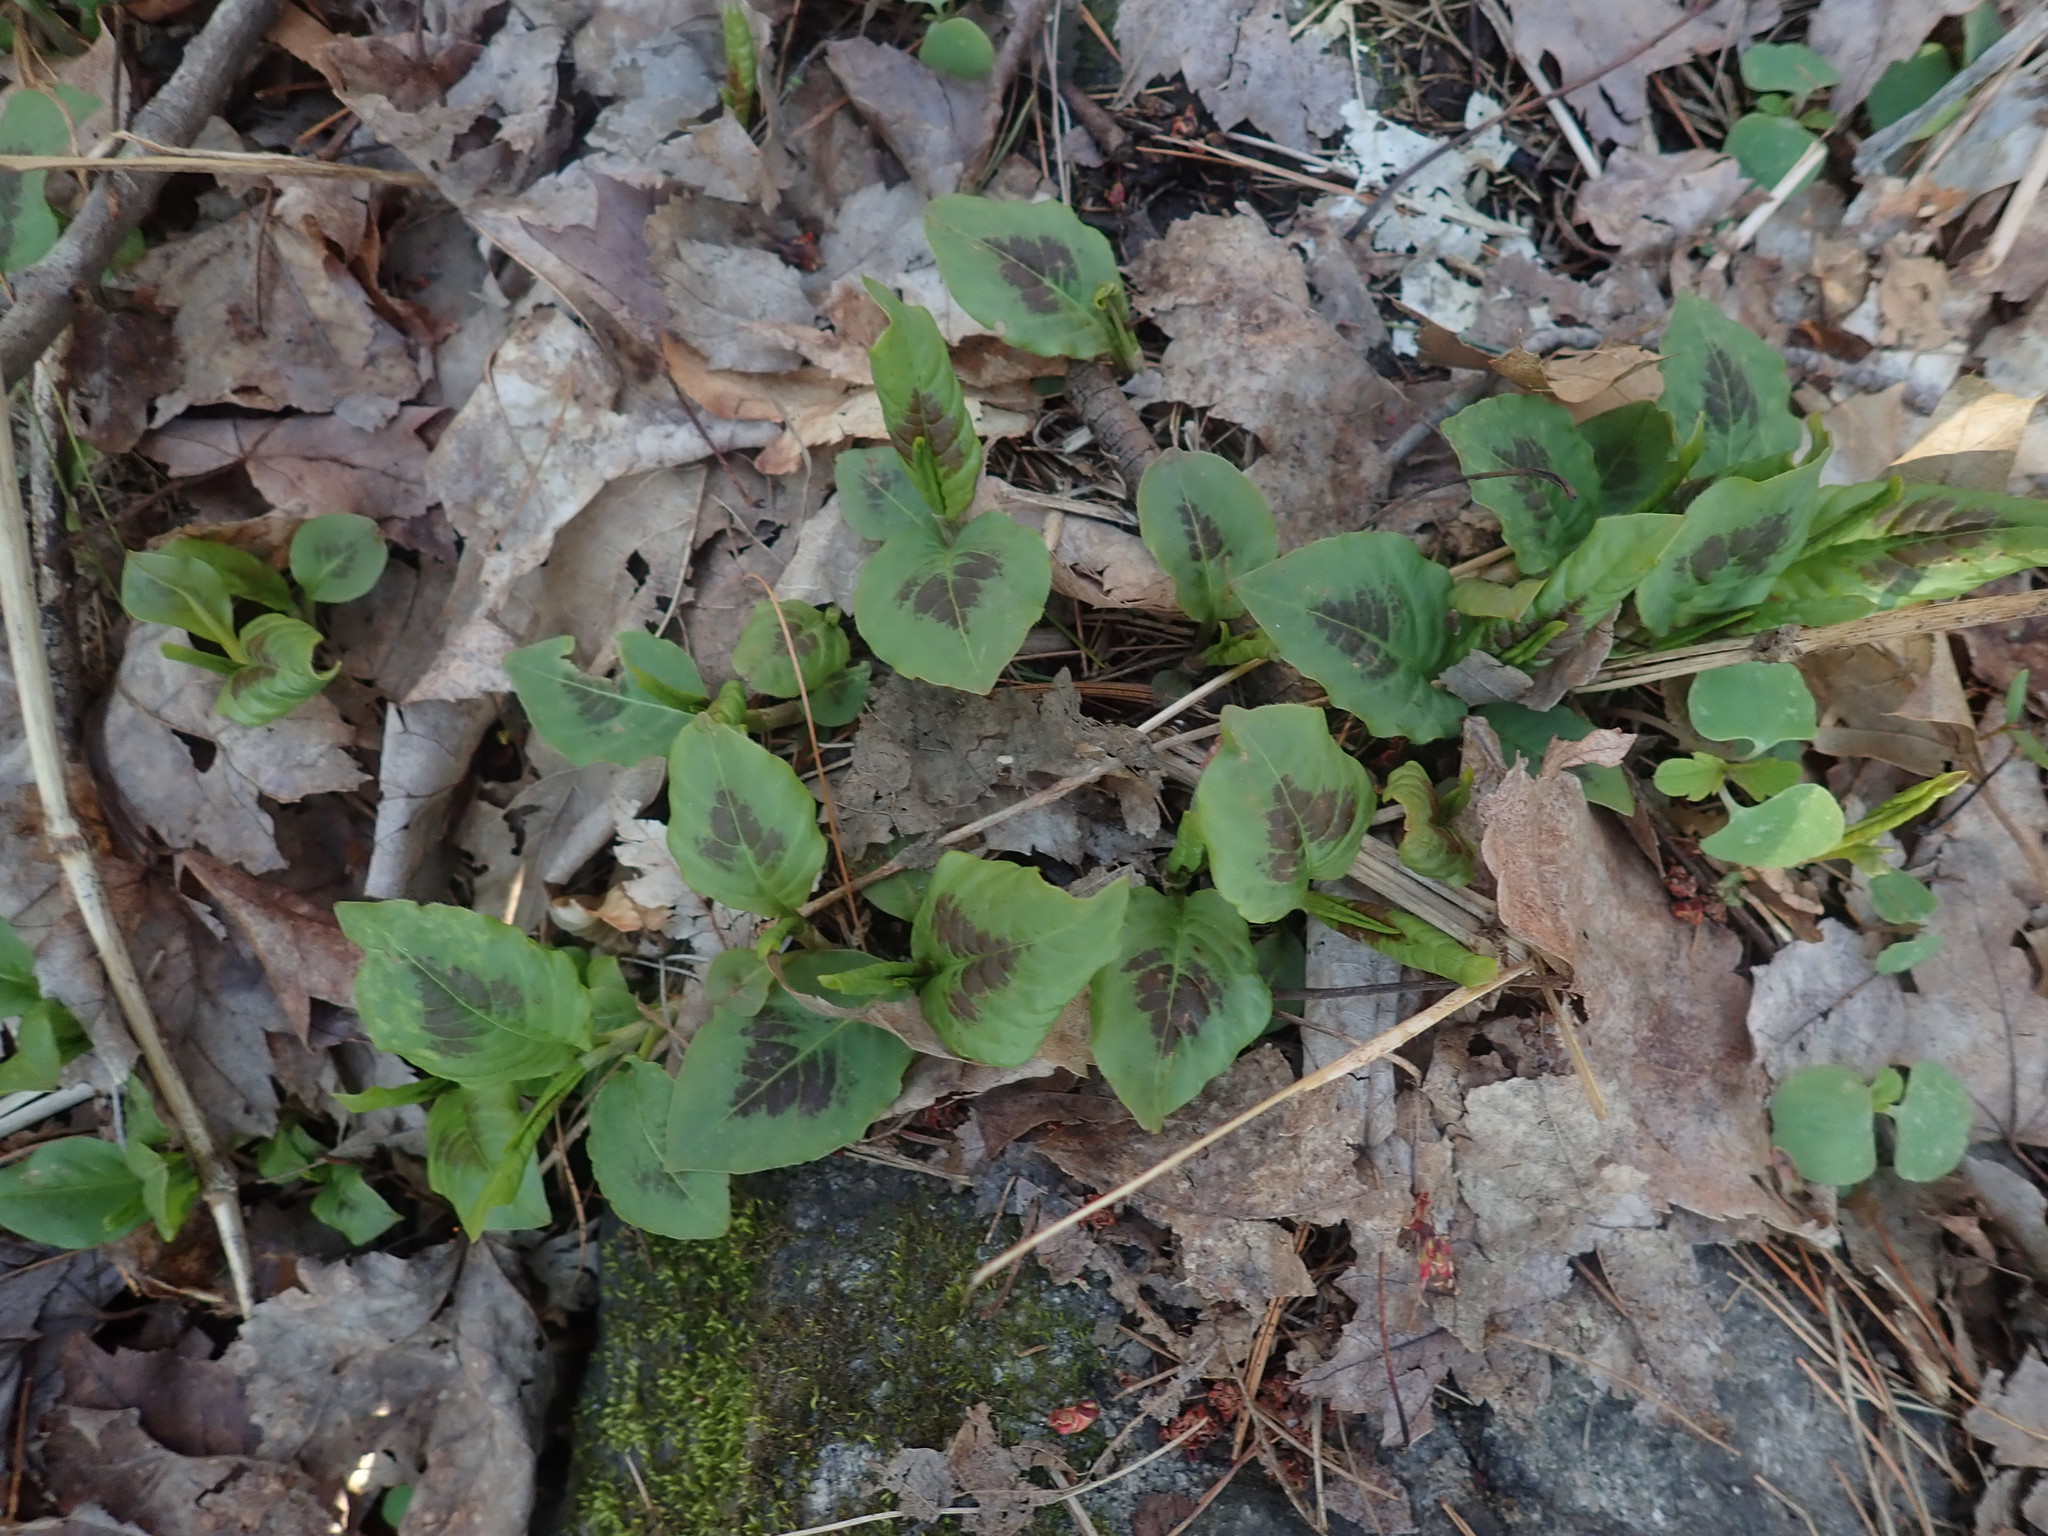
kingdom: Plantae
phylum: Tracheophyta
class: Magnoliopsida
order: Caryophyllales
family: Polygonaceae
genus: Persicaria
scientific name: Persicaria virginiana
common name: Jumpseed
